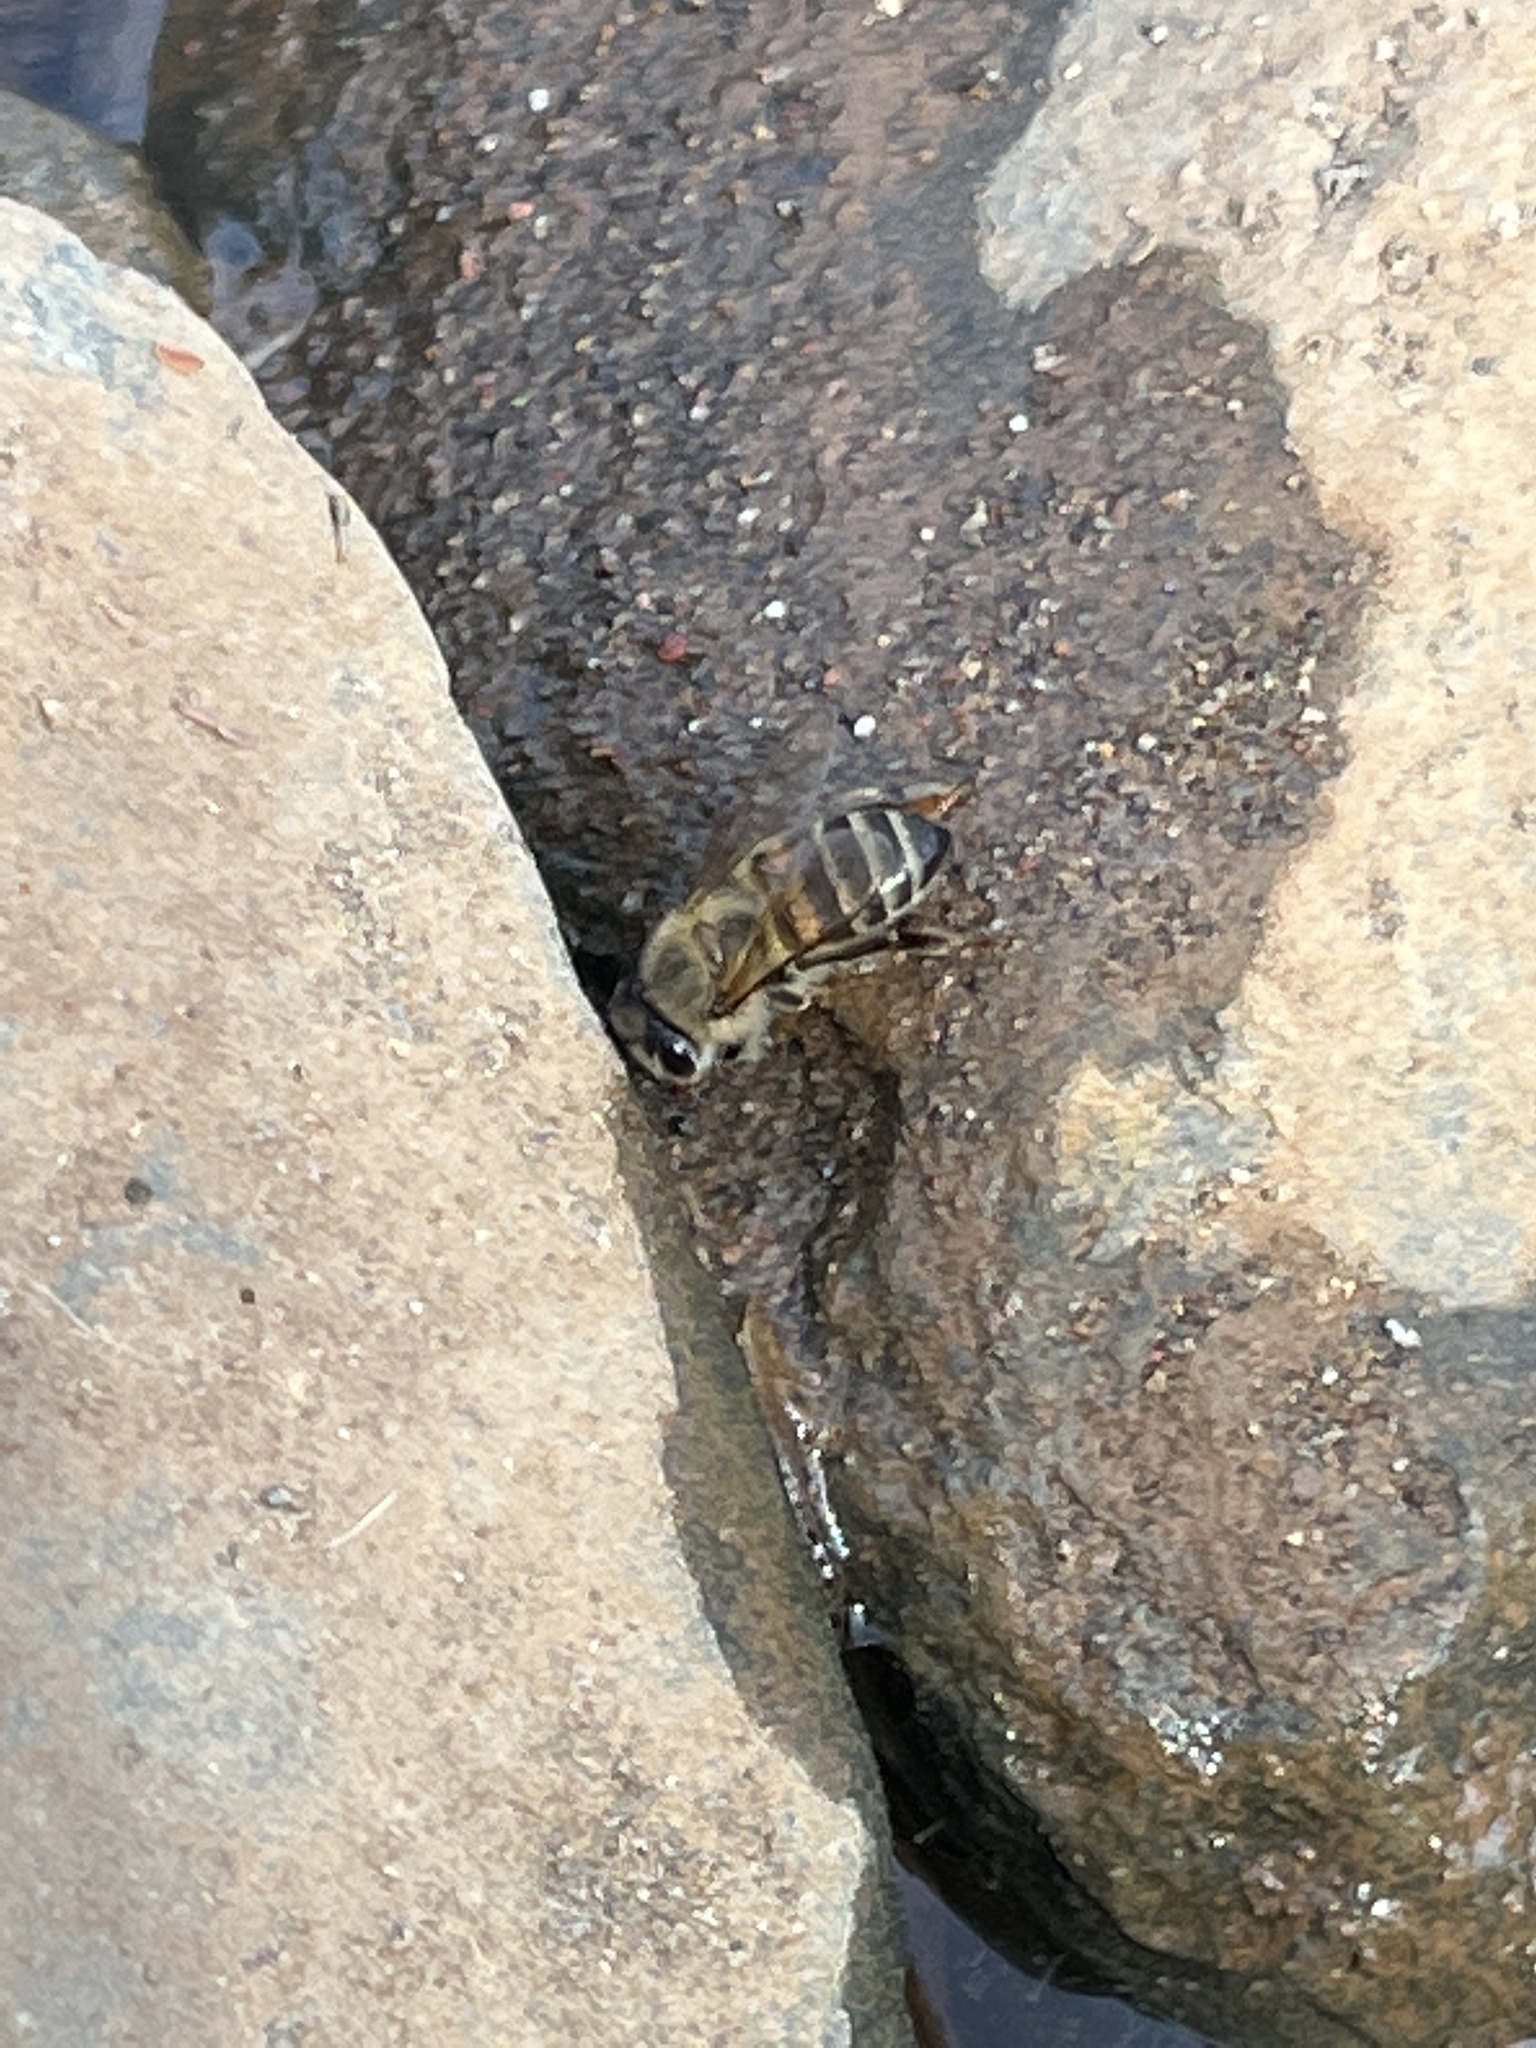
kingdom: Animalia
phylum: Arthropoda
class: Insecta
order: Hymenoptera
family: Apidae
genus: Apis
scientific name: Apis mellifera
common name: Honey bee
